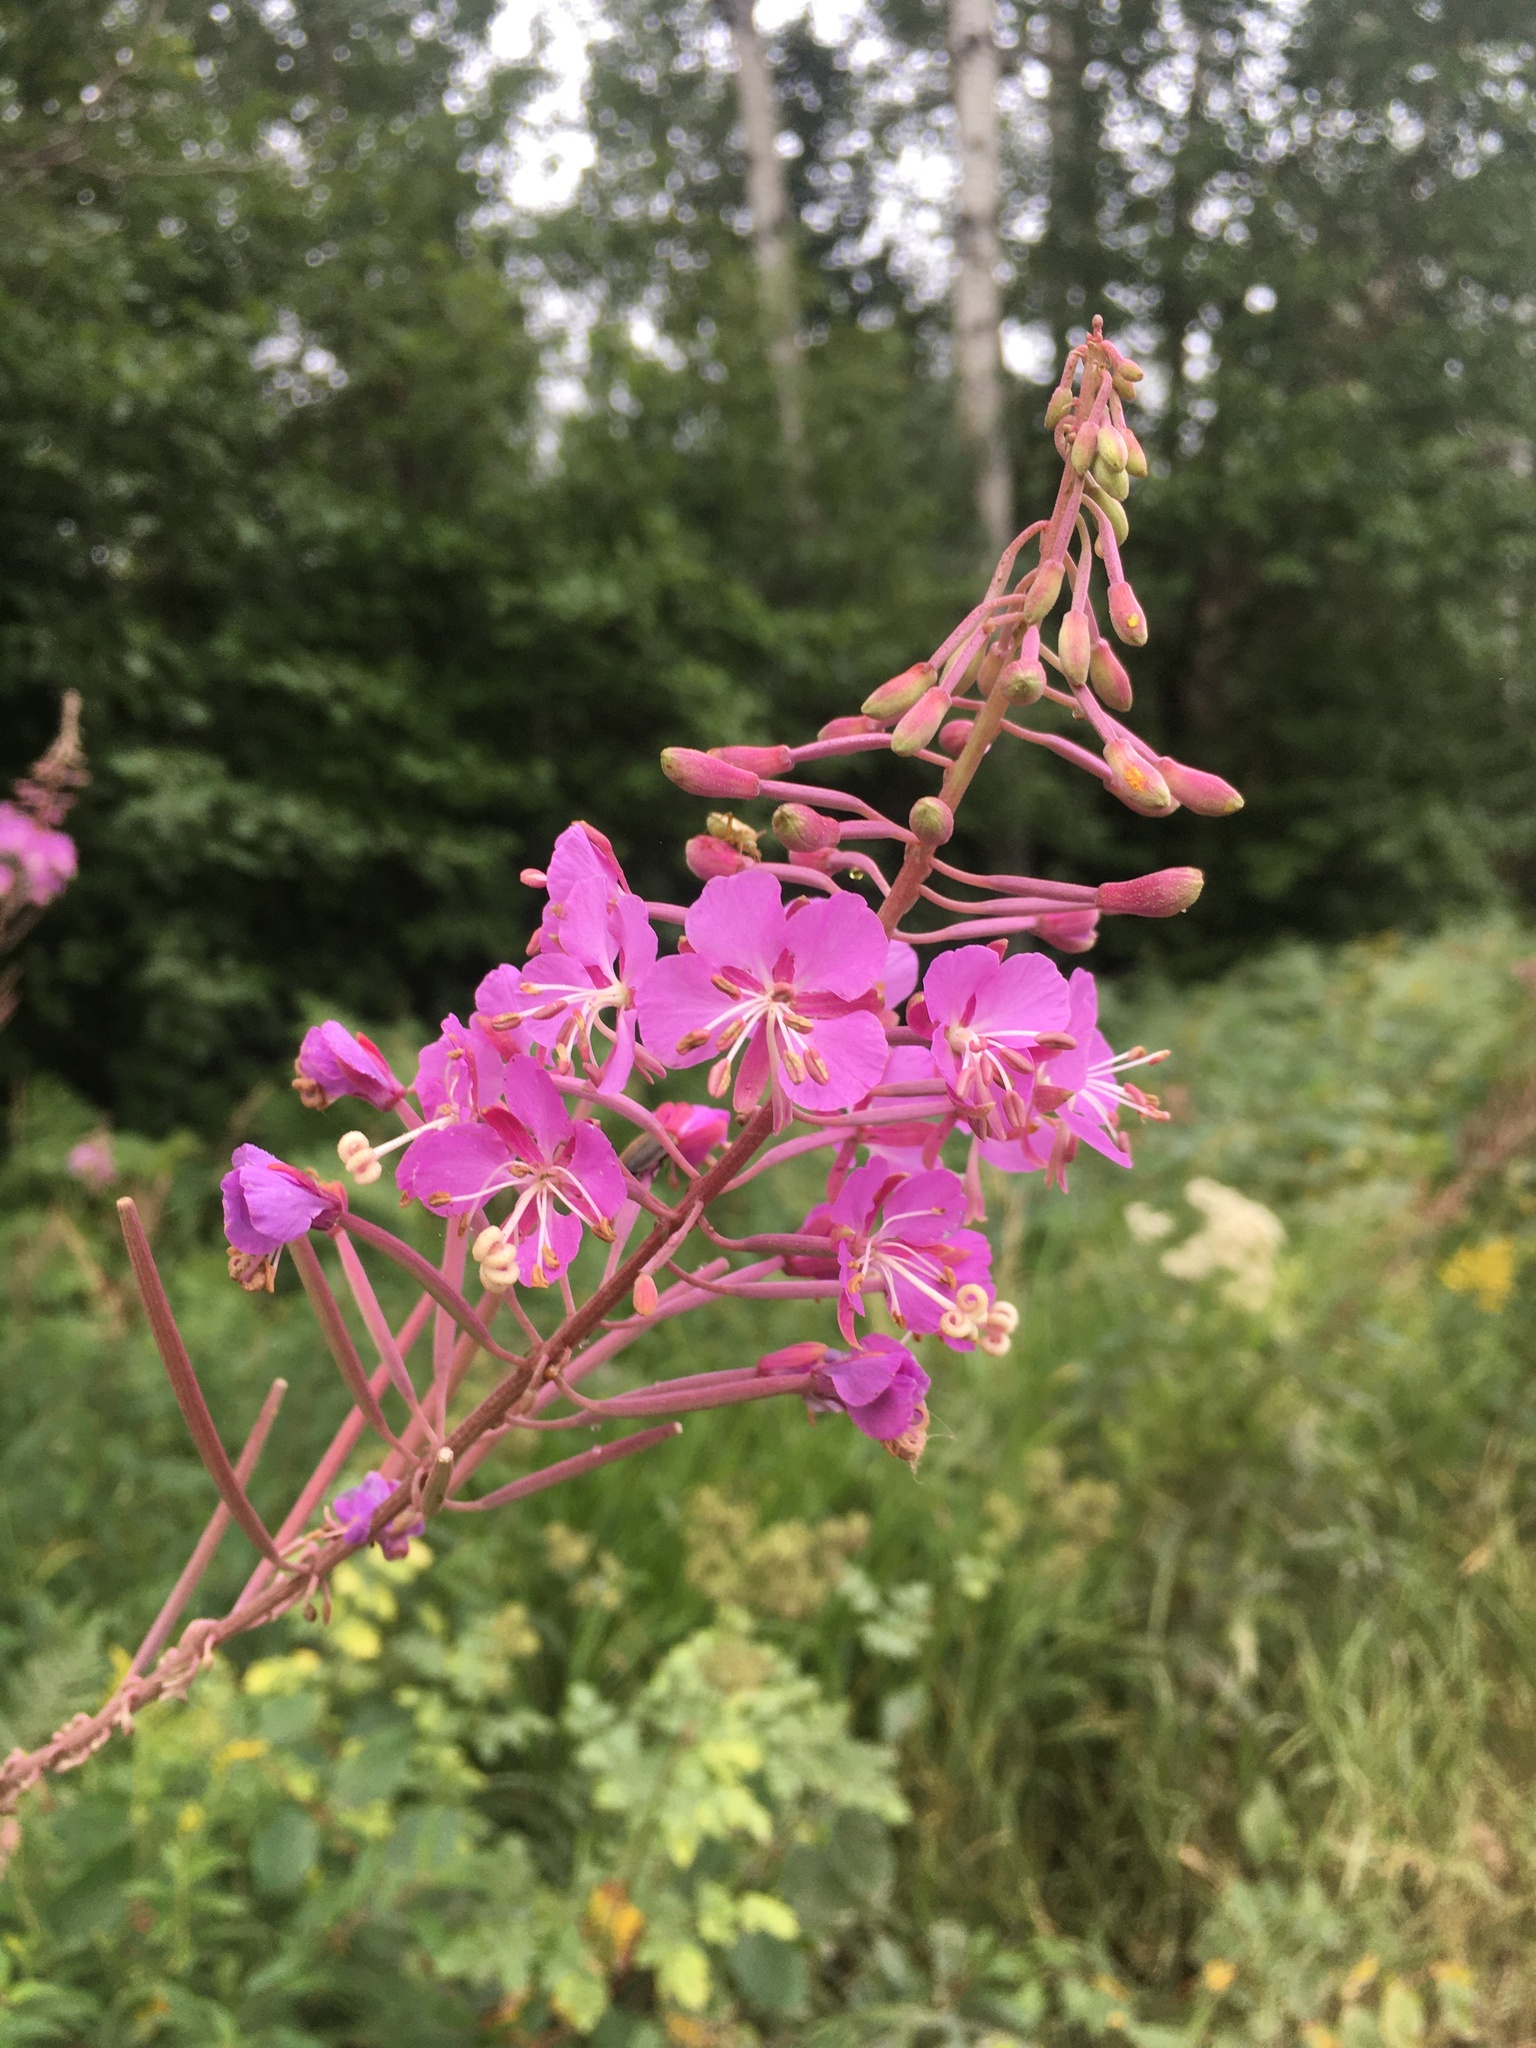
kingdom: Plantae
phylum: Tracheophyta
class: Magnoliopsida
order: Myrtales
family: Onagraceae
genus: Chamaenerion
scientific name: Chamaenerion angustifolium
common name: Fireweed
